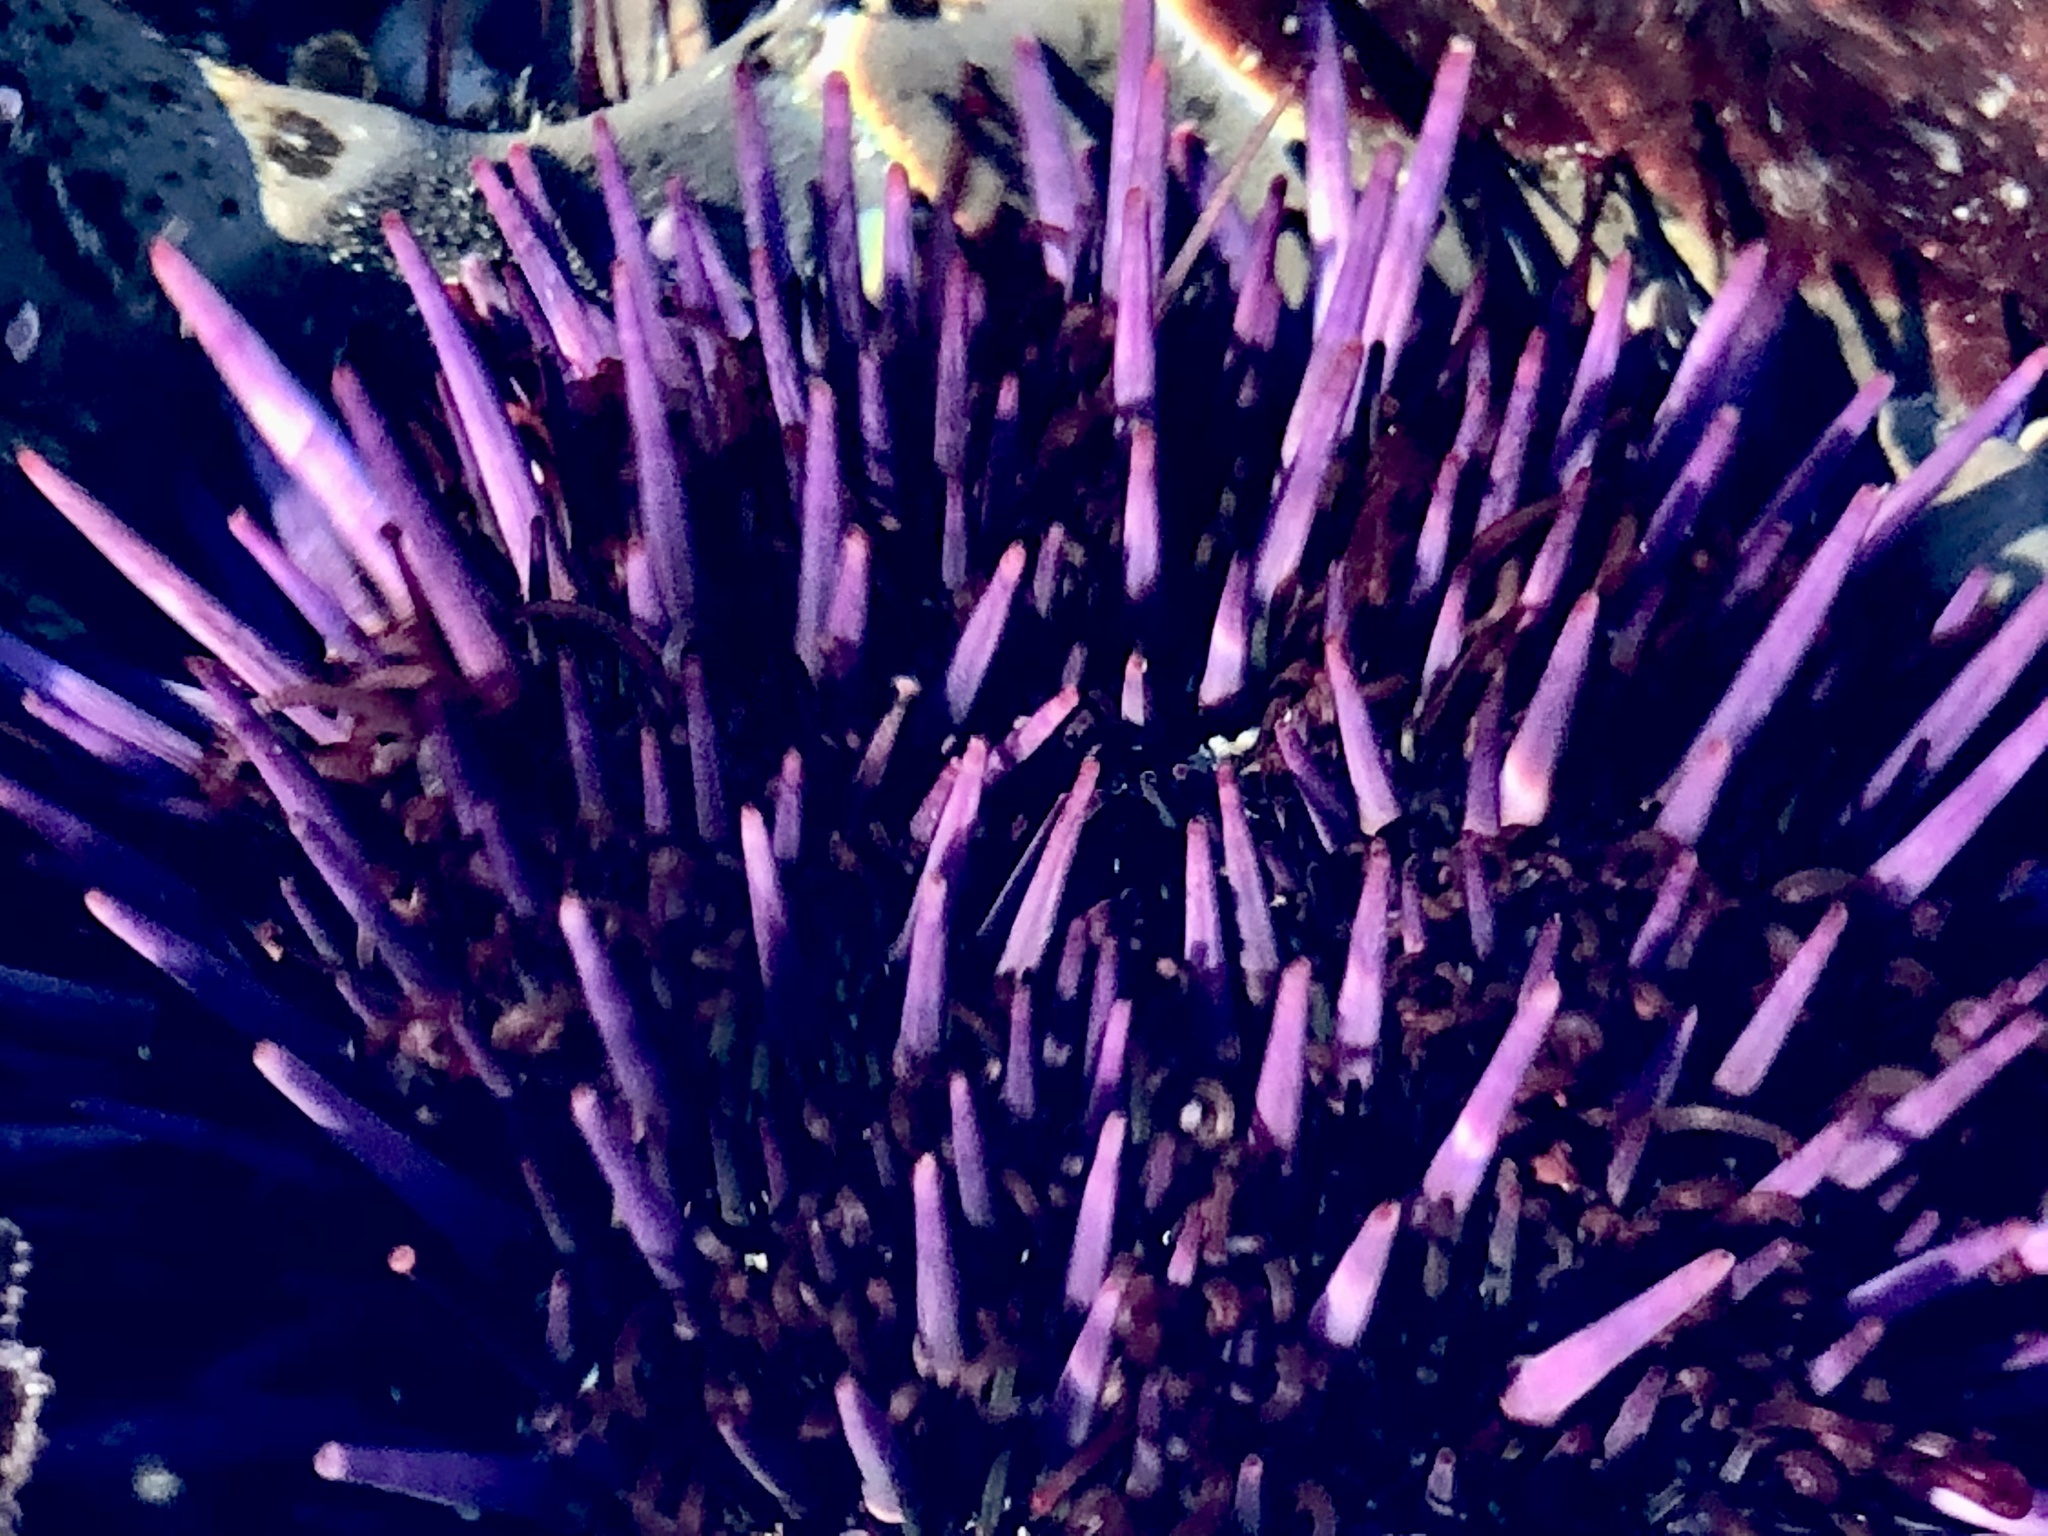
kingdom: Animalia
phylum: Echinodermata
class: Echinoidea
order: Camarodonta
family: Strongylocentrotidae
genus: Strongylocentrotus
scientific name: Strongylocentrotus purpuratus
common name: Purple sea urchin
